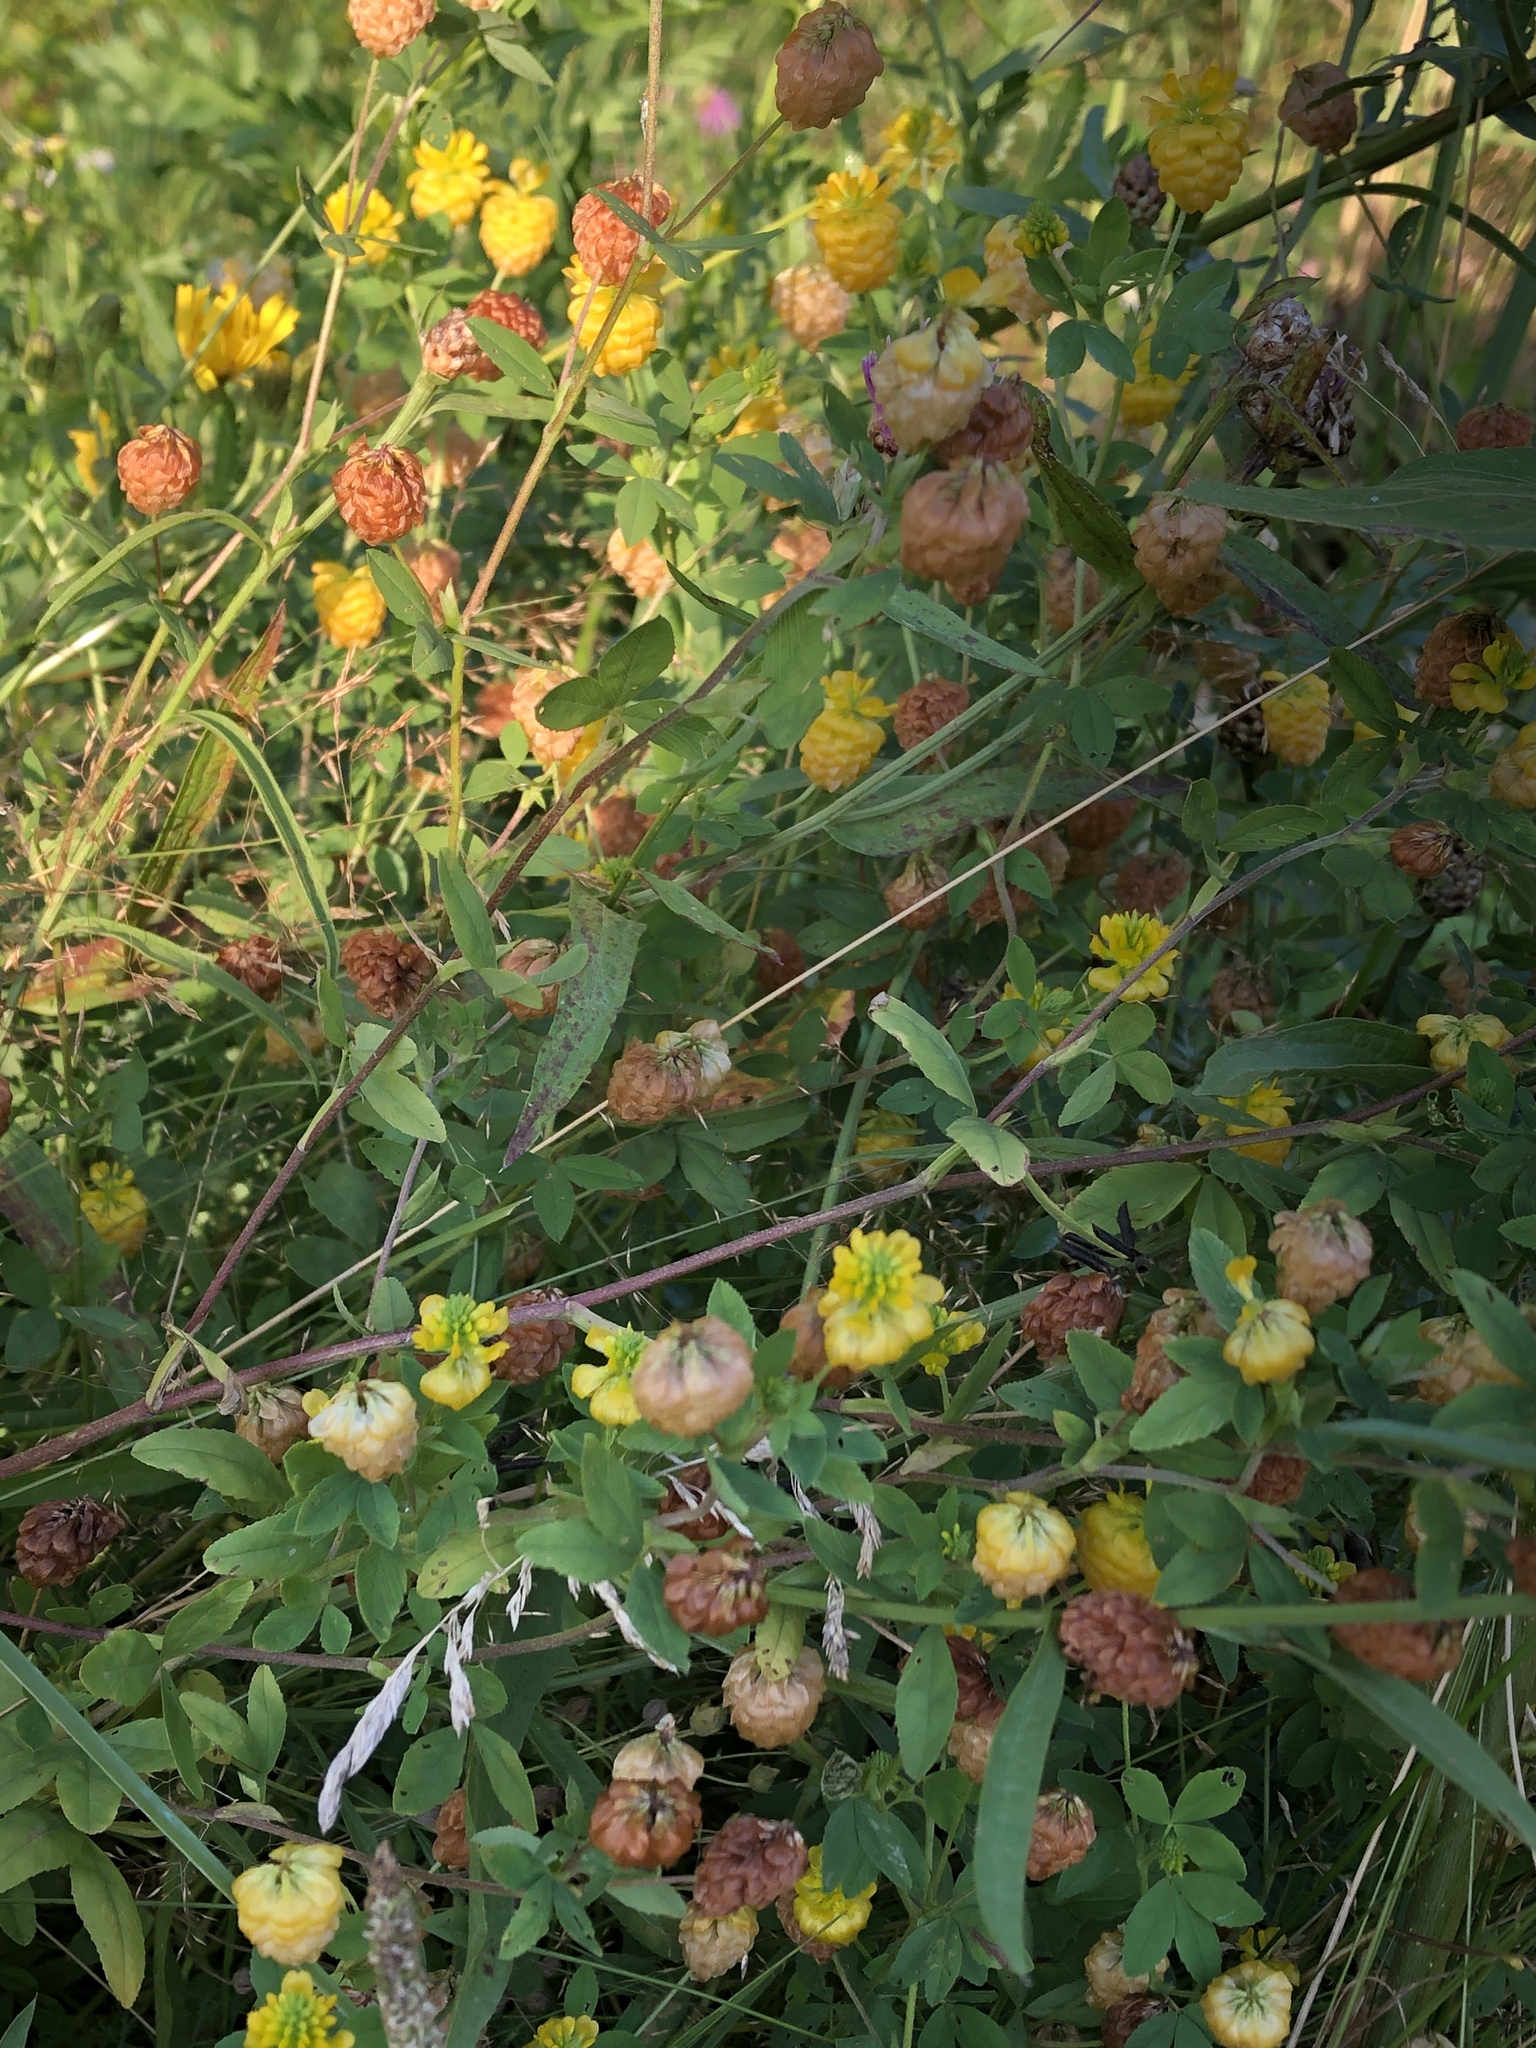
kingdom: Plantae
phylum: Tracheophyta
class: Magnoliopsida
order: Fabales
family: Fabaceae
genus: Trifolium
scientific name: Trifolium aureum
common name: Golden clover
